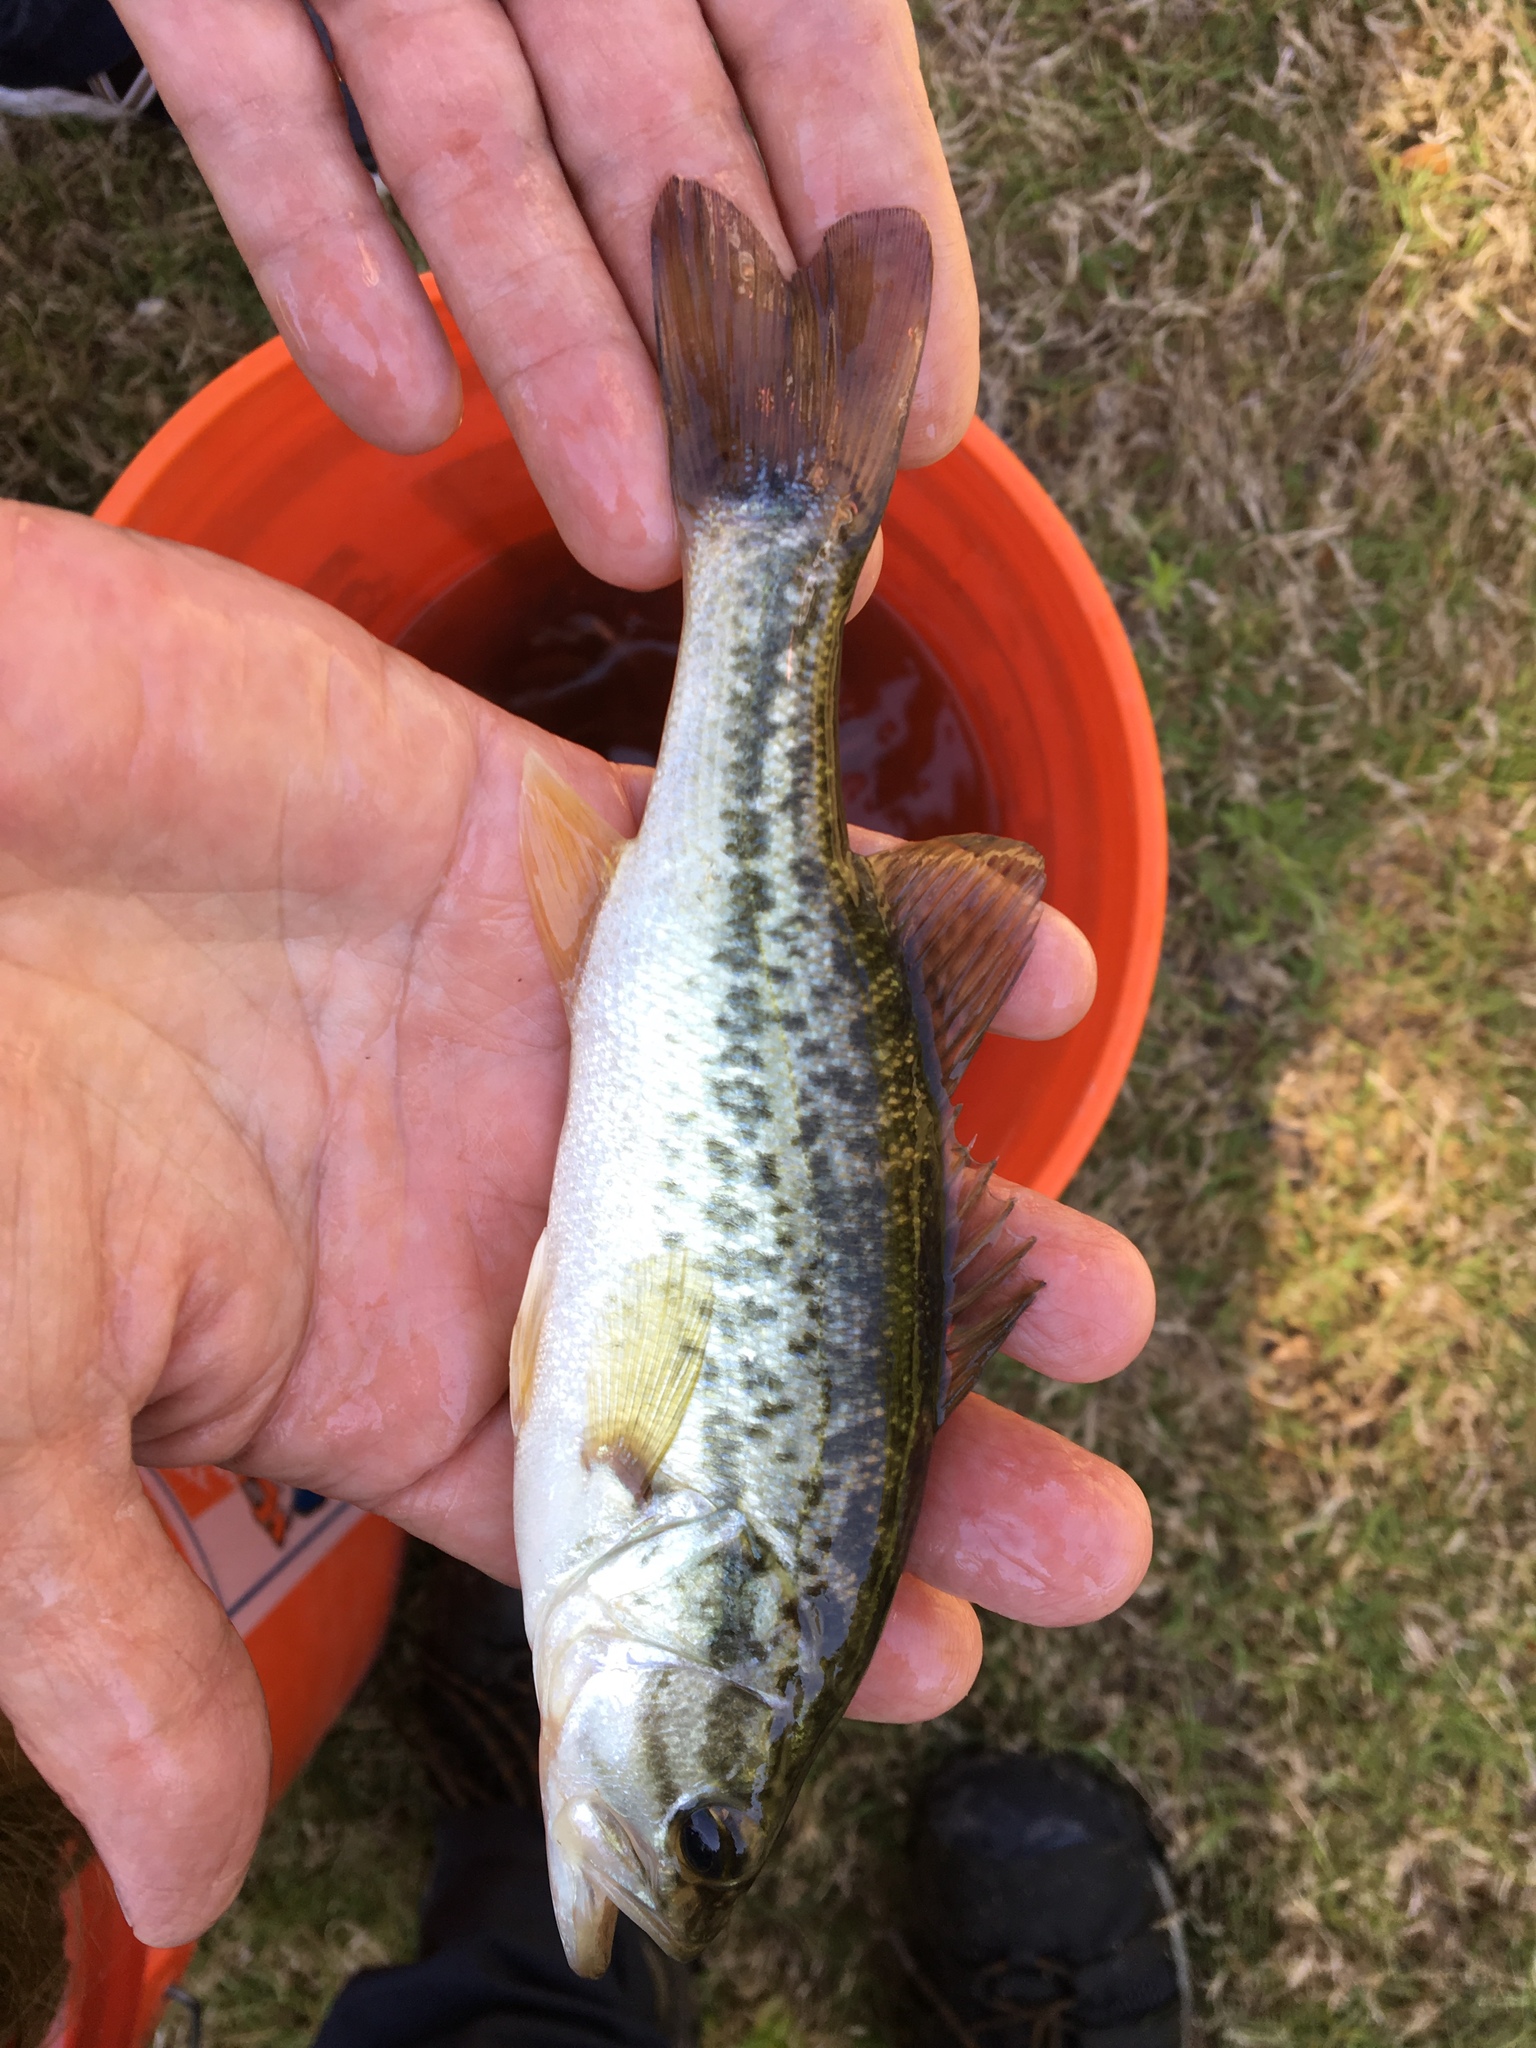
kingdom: Animalia
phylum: Chordata
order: Perciformes
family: Centrarchidae
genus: Micropterus
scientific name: Micropterus
